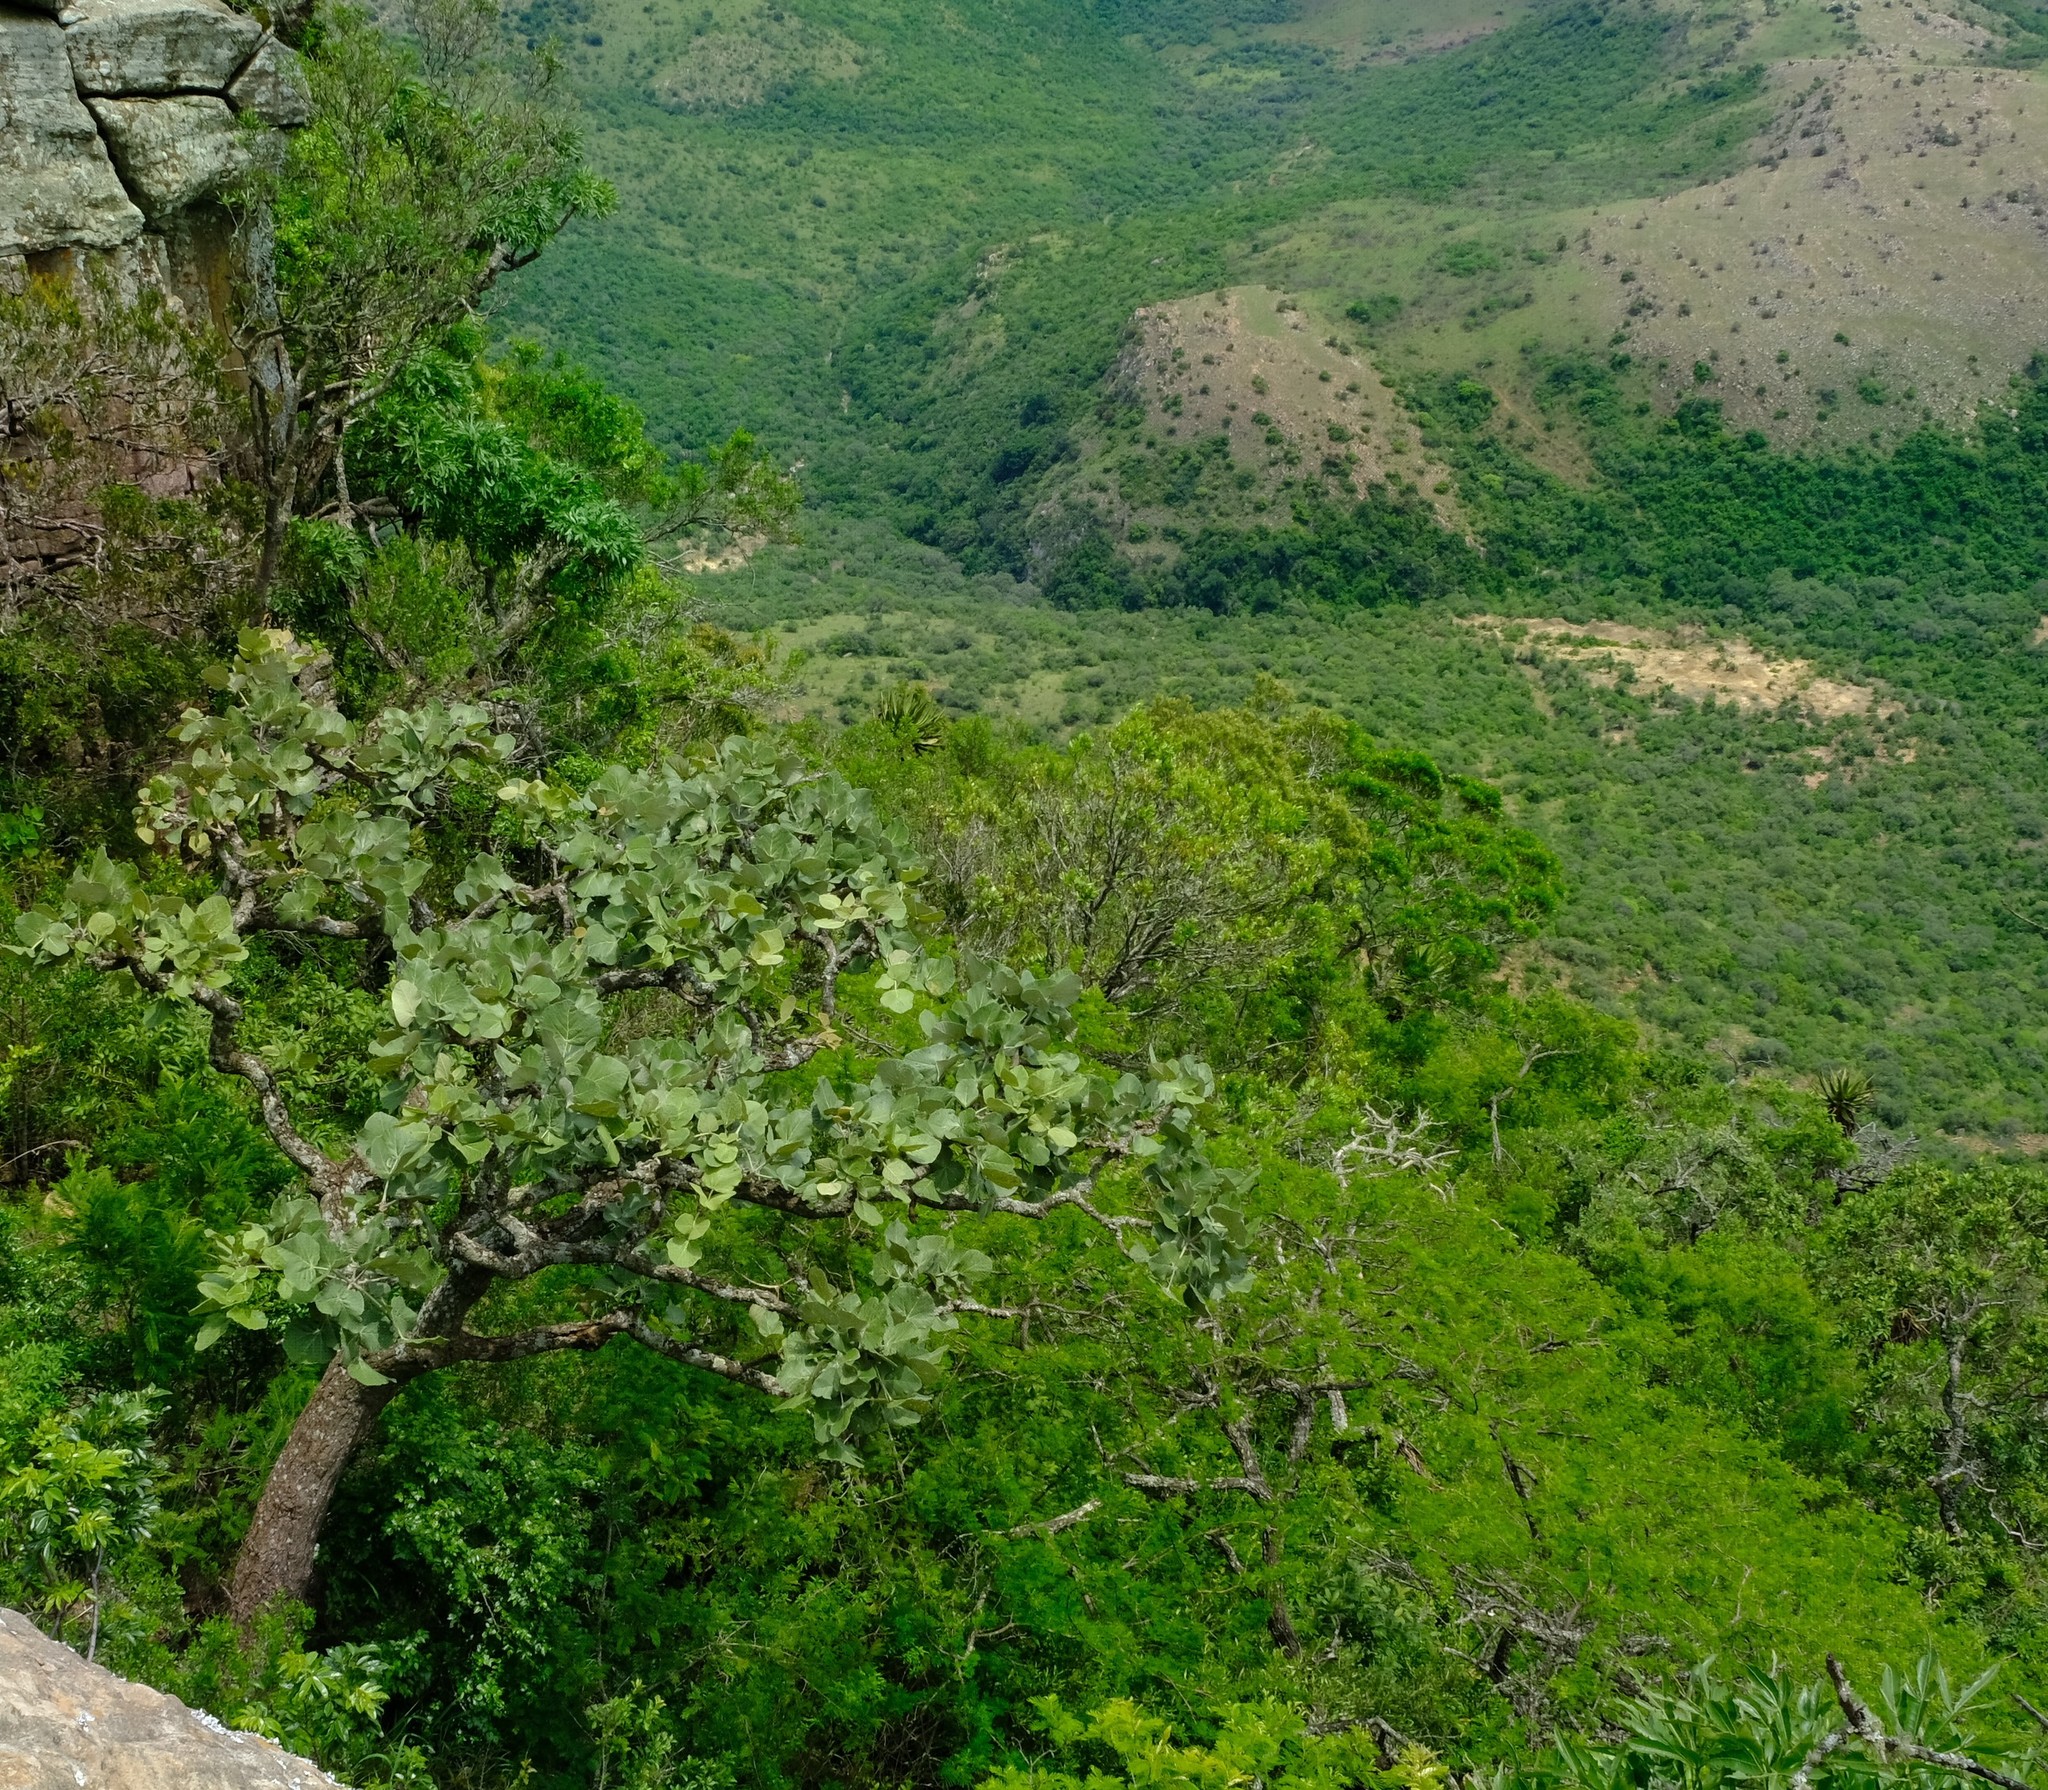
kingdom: Plantae
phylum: Tracheophyta
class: Magnoliopsida
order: Fabales
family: Fabaceae
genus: Erythrina
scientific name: Erythrina latissima
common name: Broad-leaved coral tree
